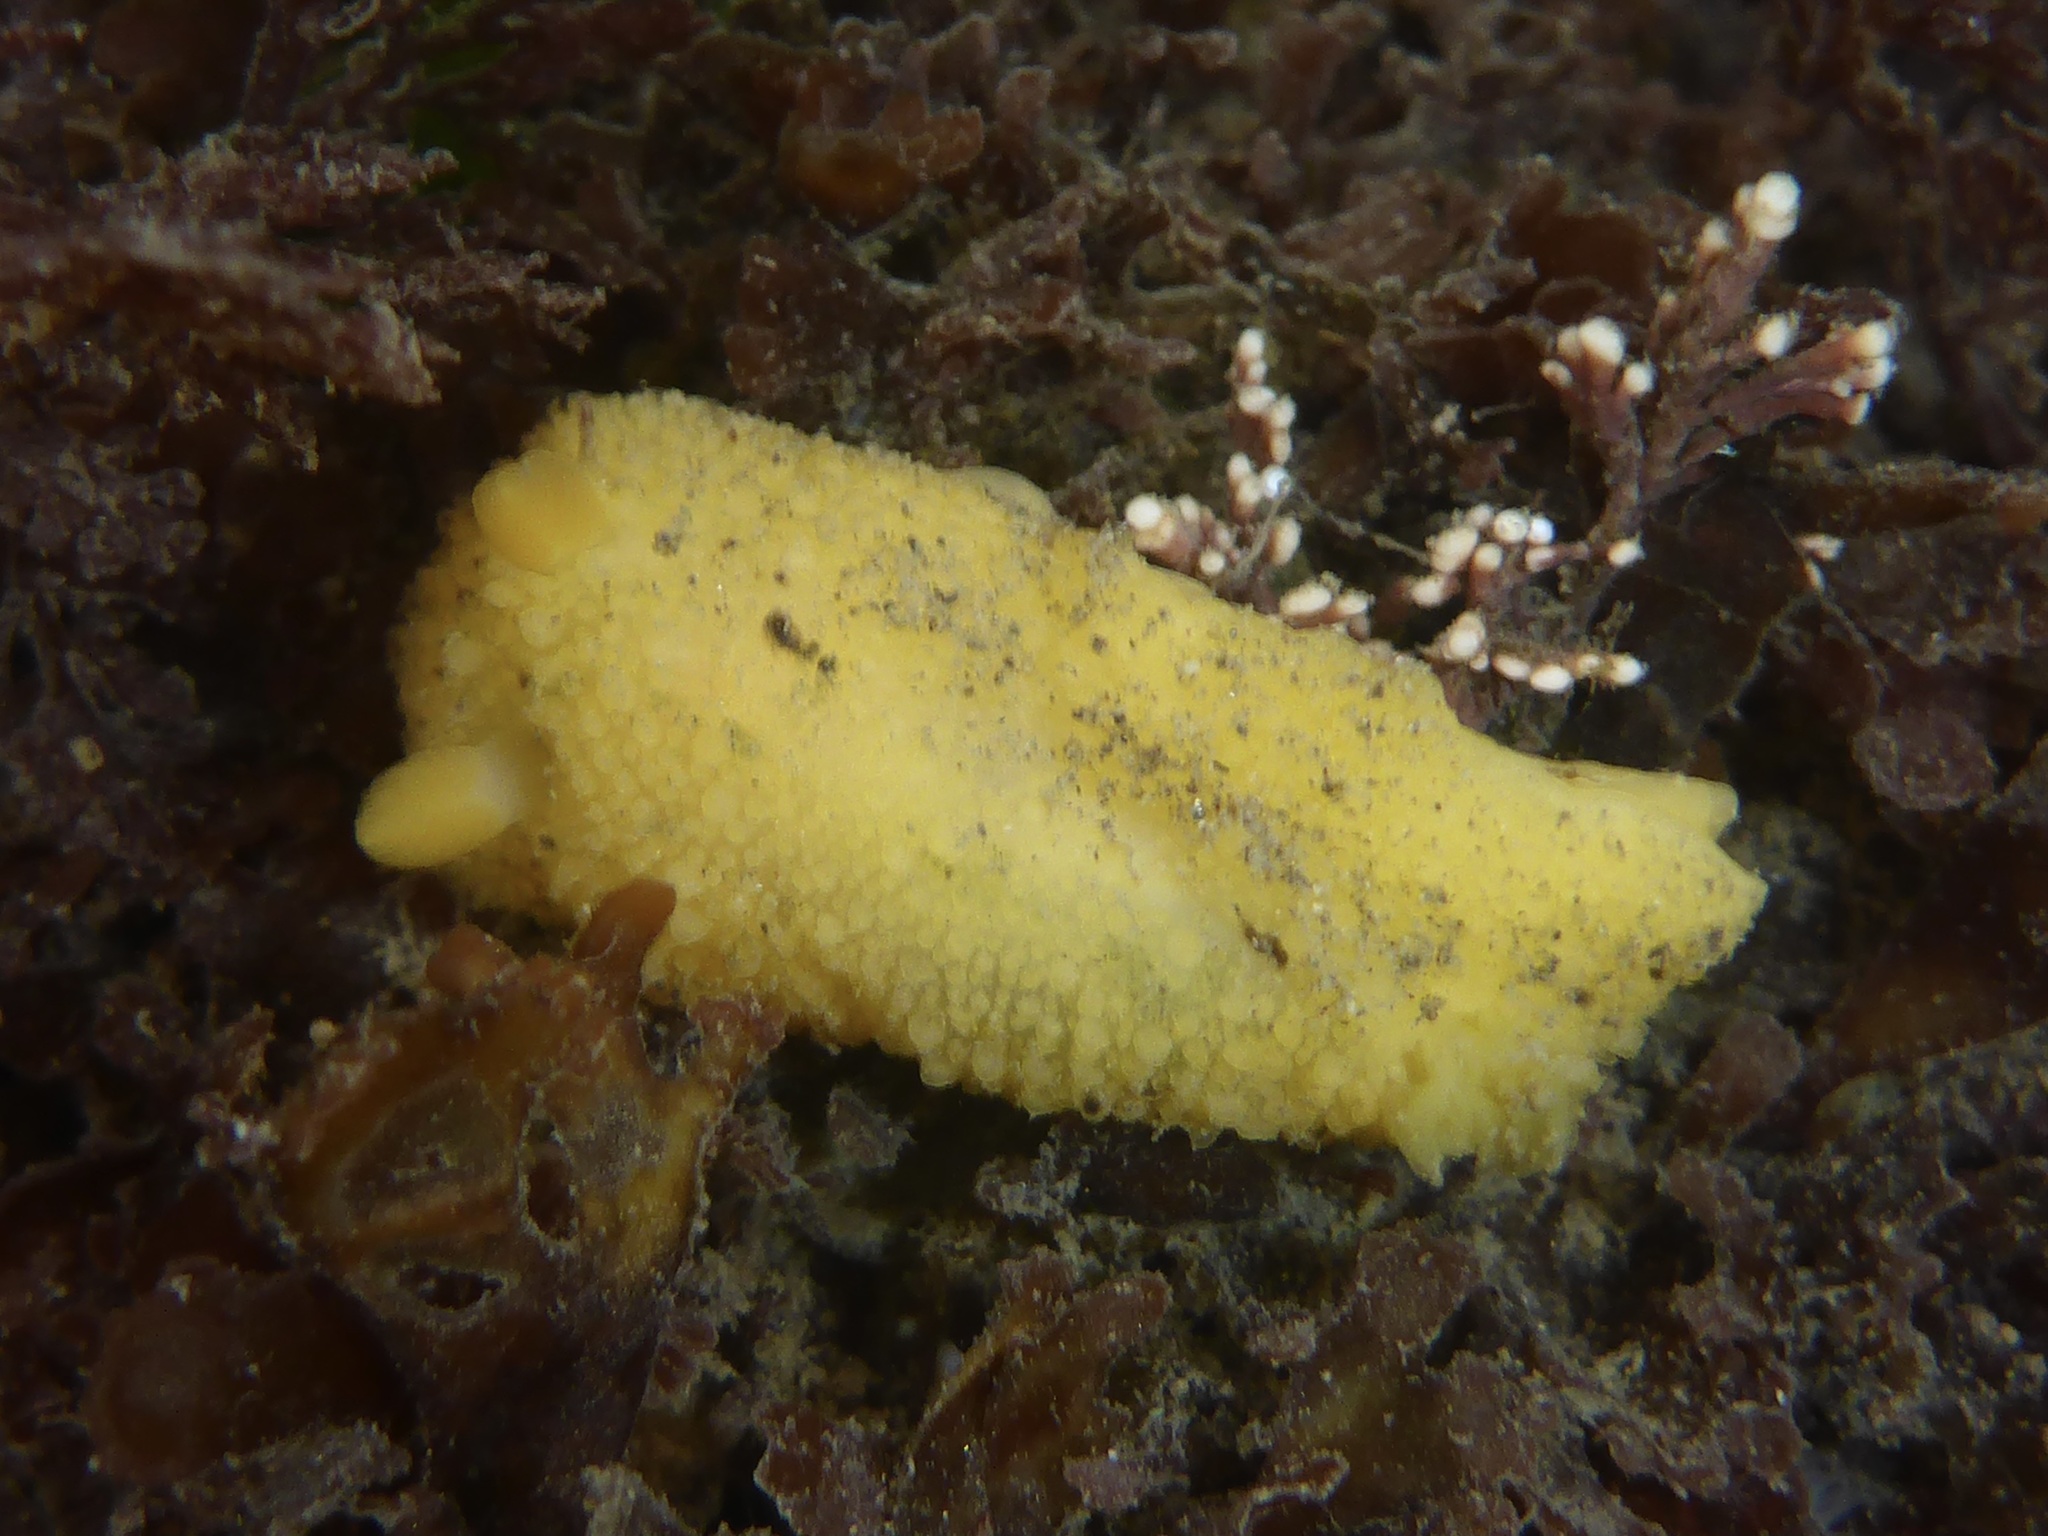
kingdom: Animalia
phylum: Mollusca
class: Gastropoda
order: Nudibranchia
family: Dorididae
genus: Doris
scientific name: Doris montereyensis
